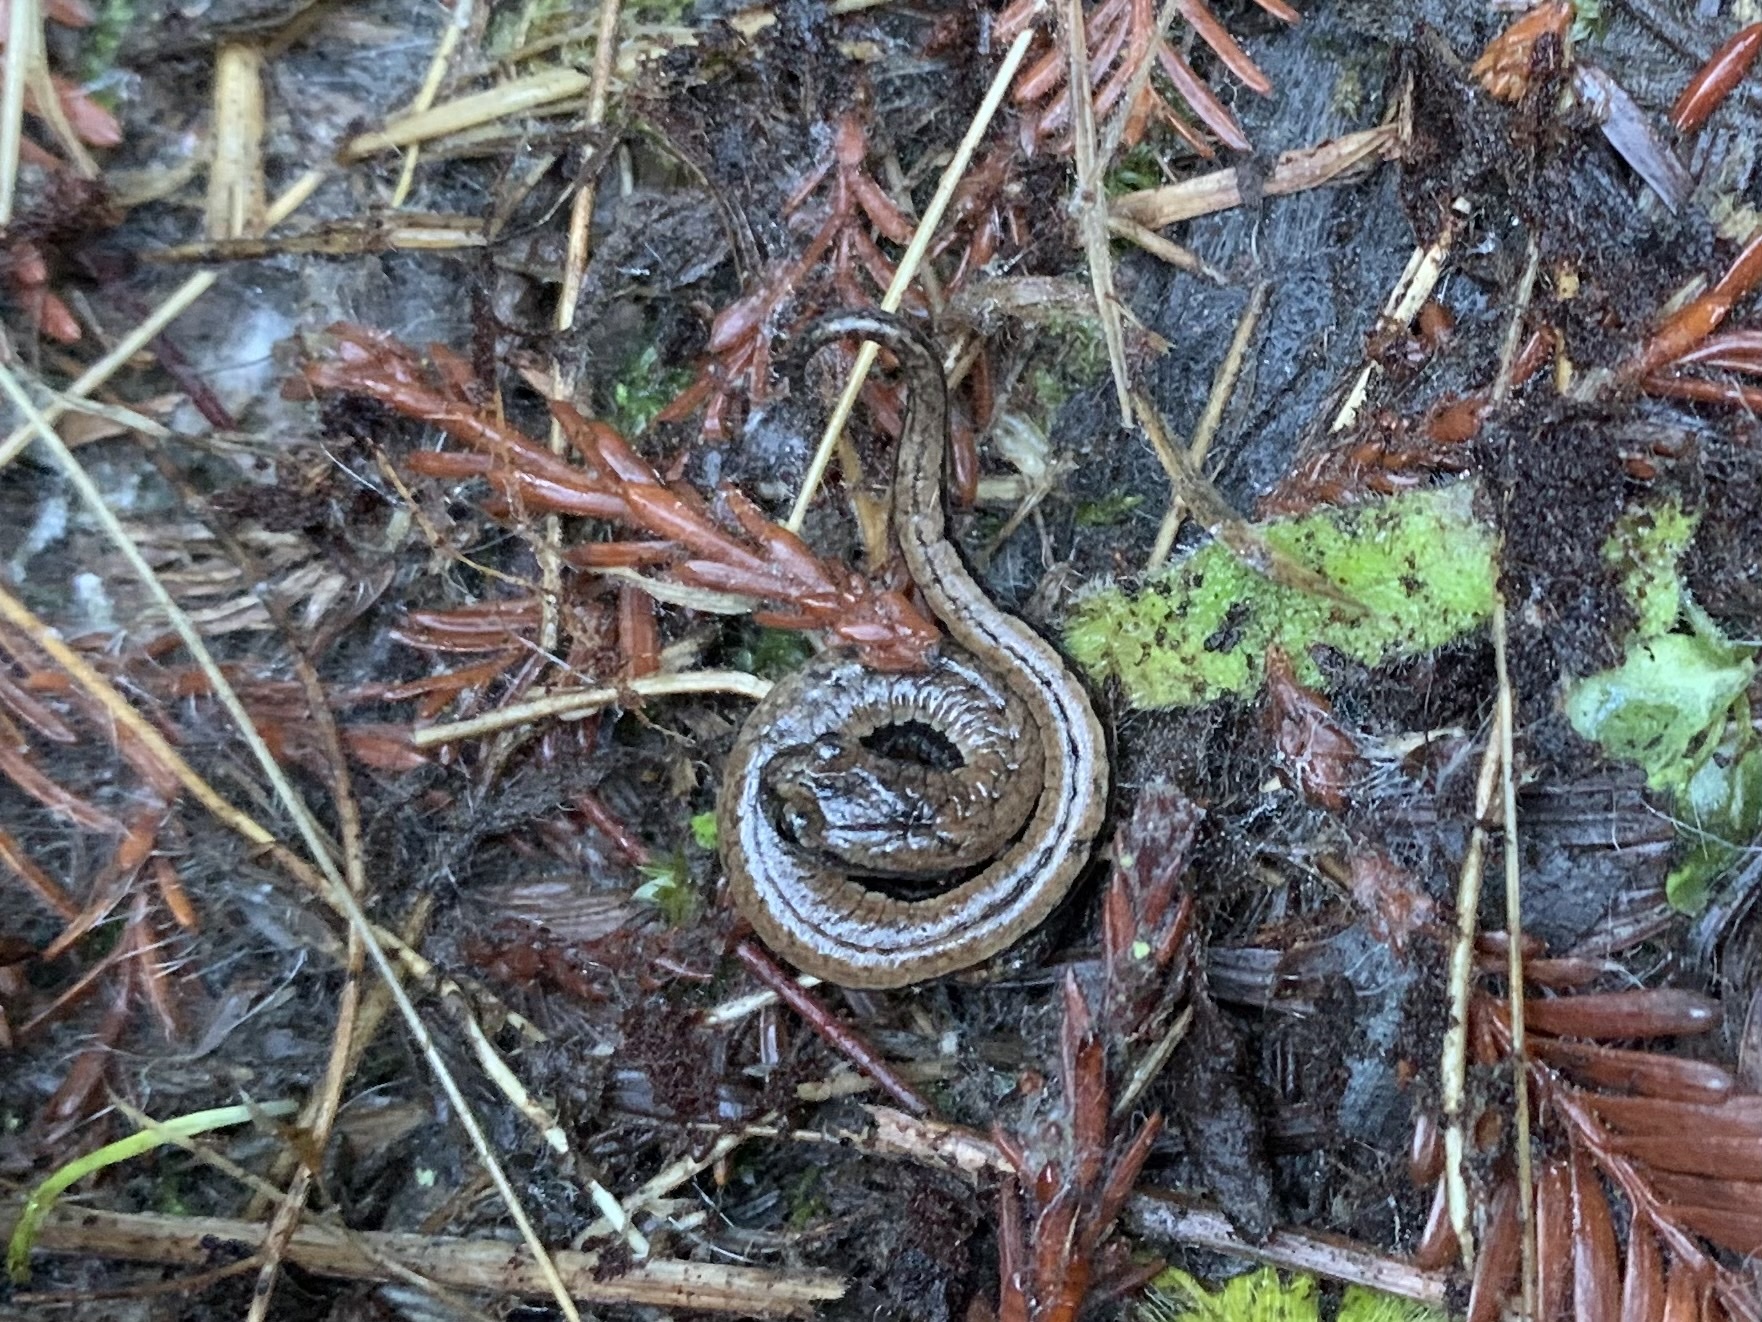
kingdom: Animalia
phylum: Chordata
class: Amphibia
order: Caudata
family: Plethodontidae
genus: Batrachoseps
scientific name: Batrachoseps attenuatus
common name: California slender salamander
